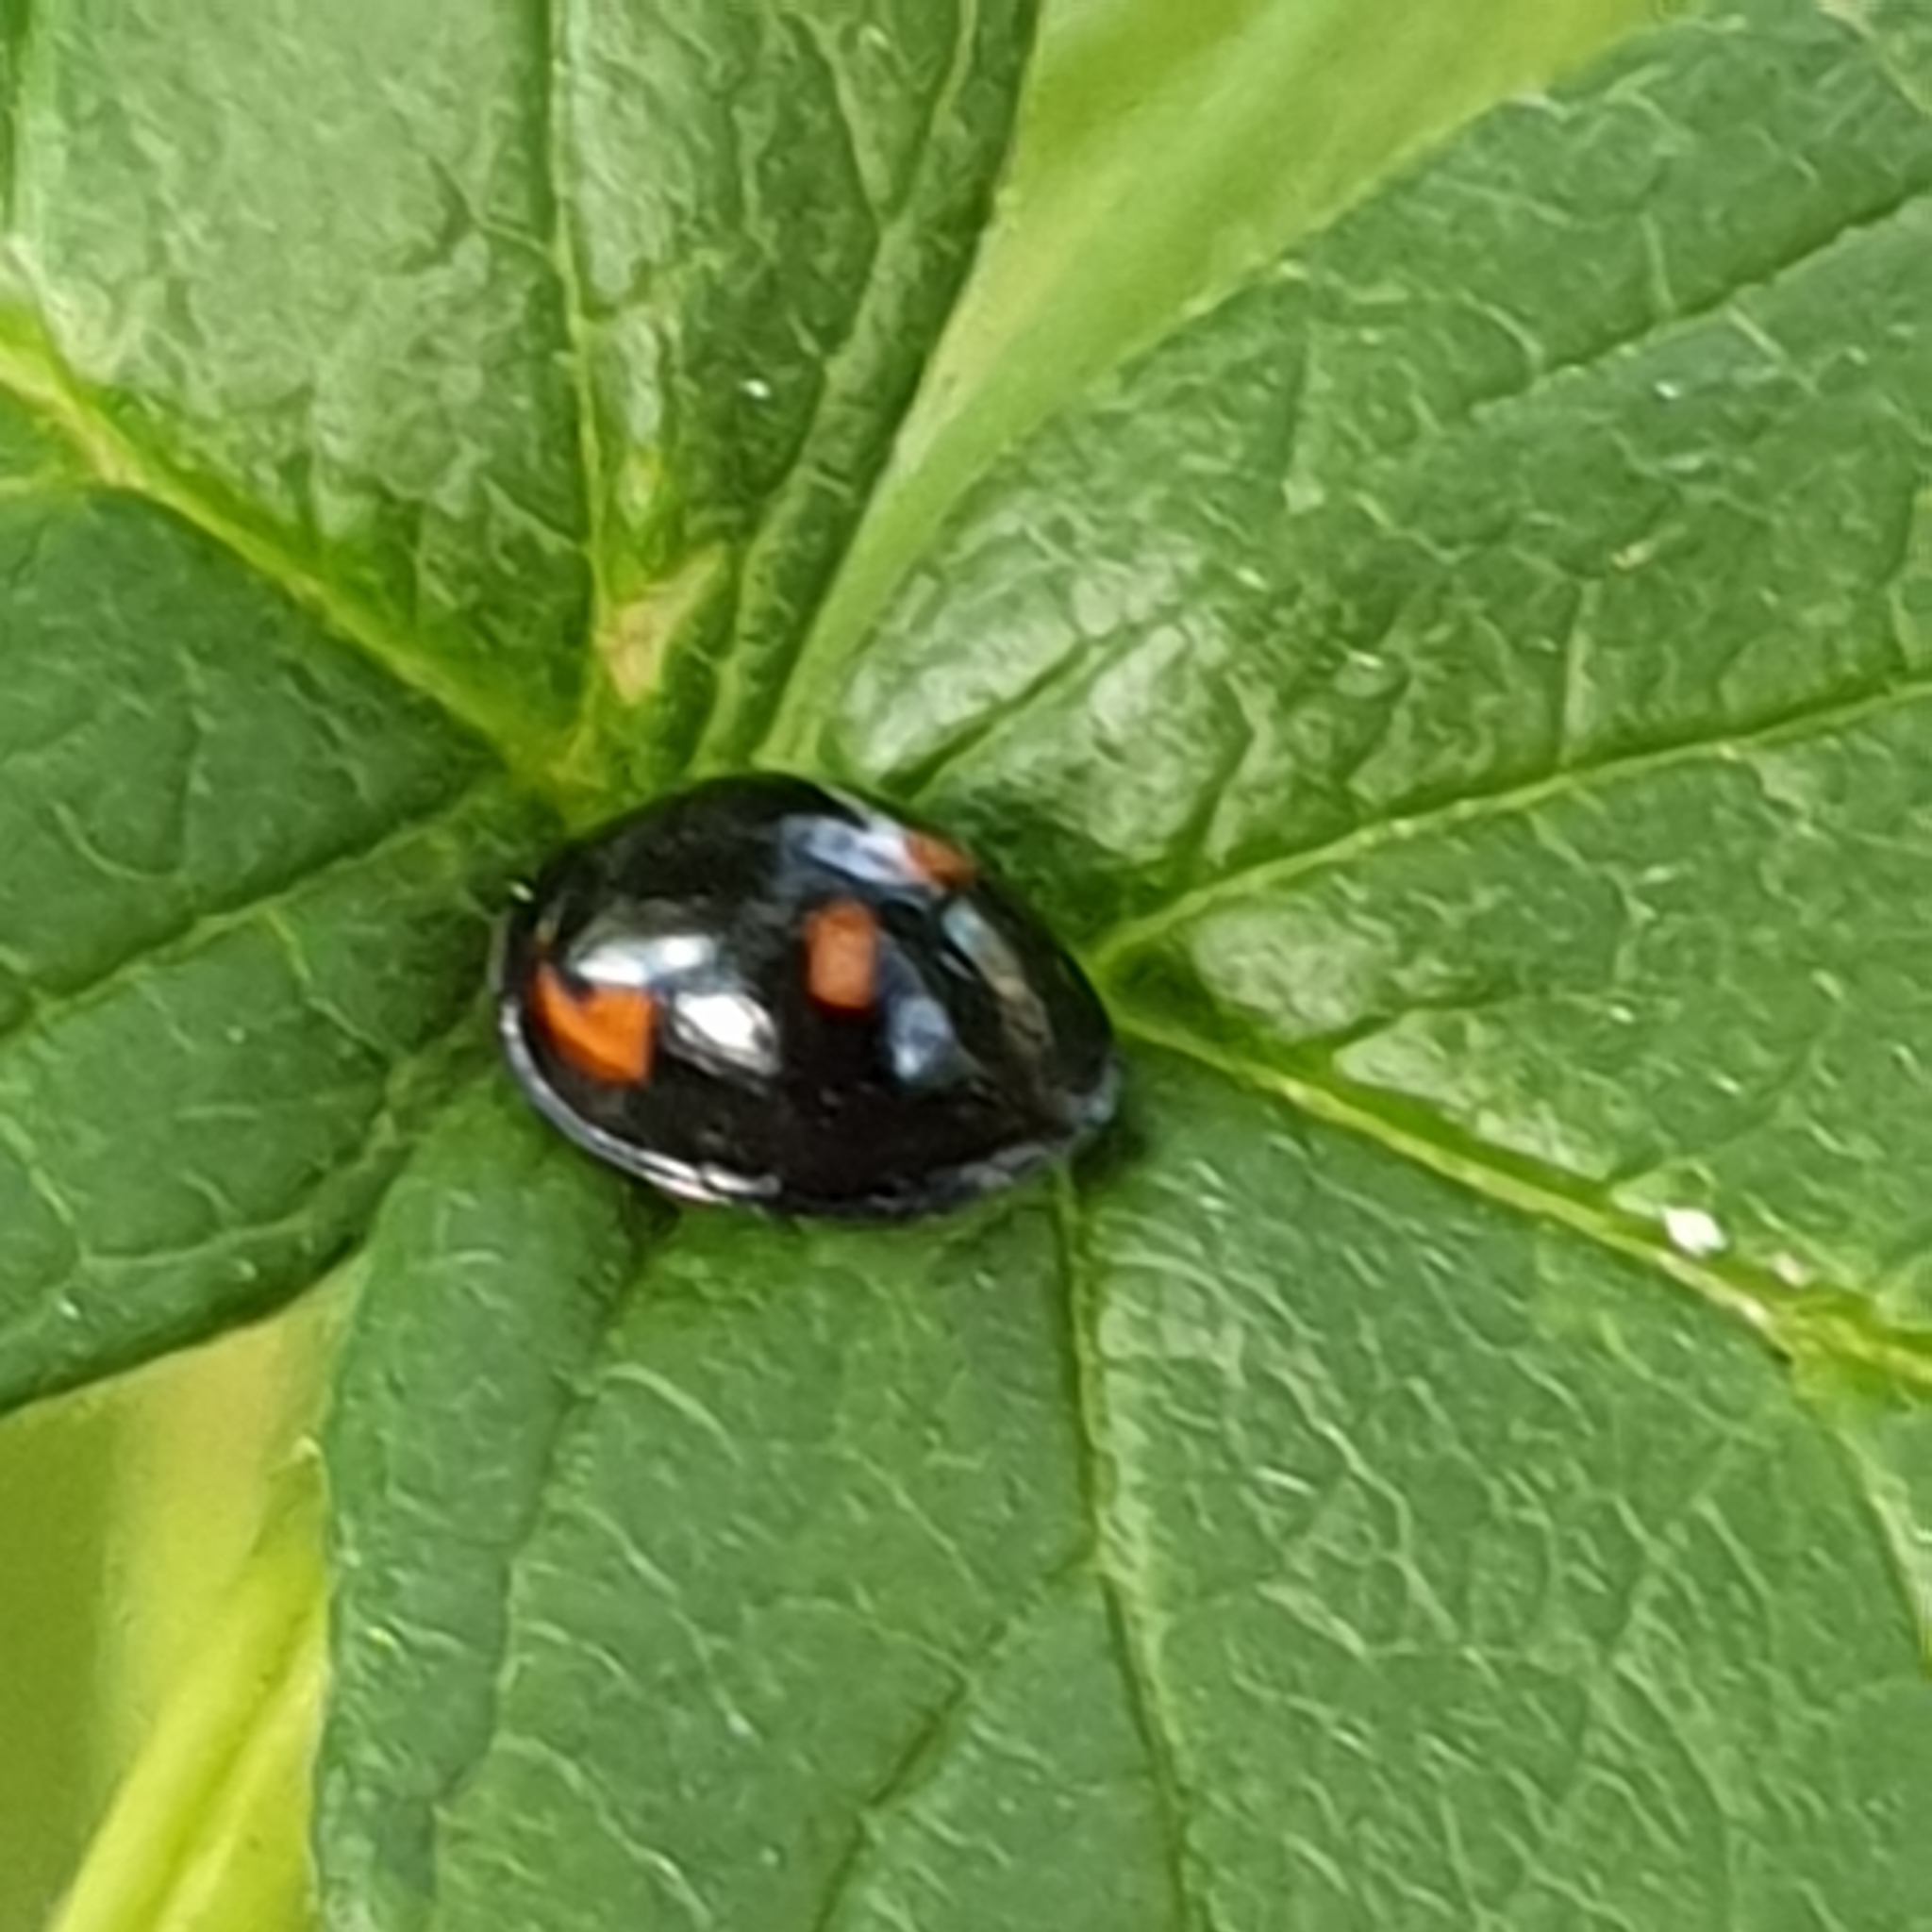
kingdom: Animalia
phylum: Arthropoda
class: Insecta
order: Coleoptera
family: Coccinellidae
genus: Brumus
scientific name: Brumus quadripustulatus
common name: Ladybird beetle
